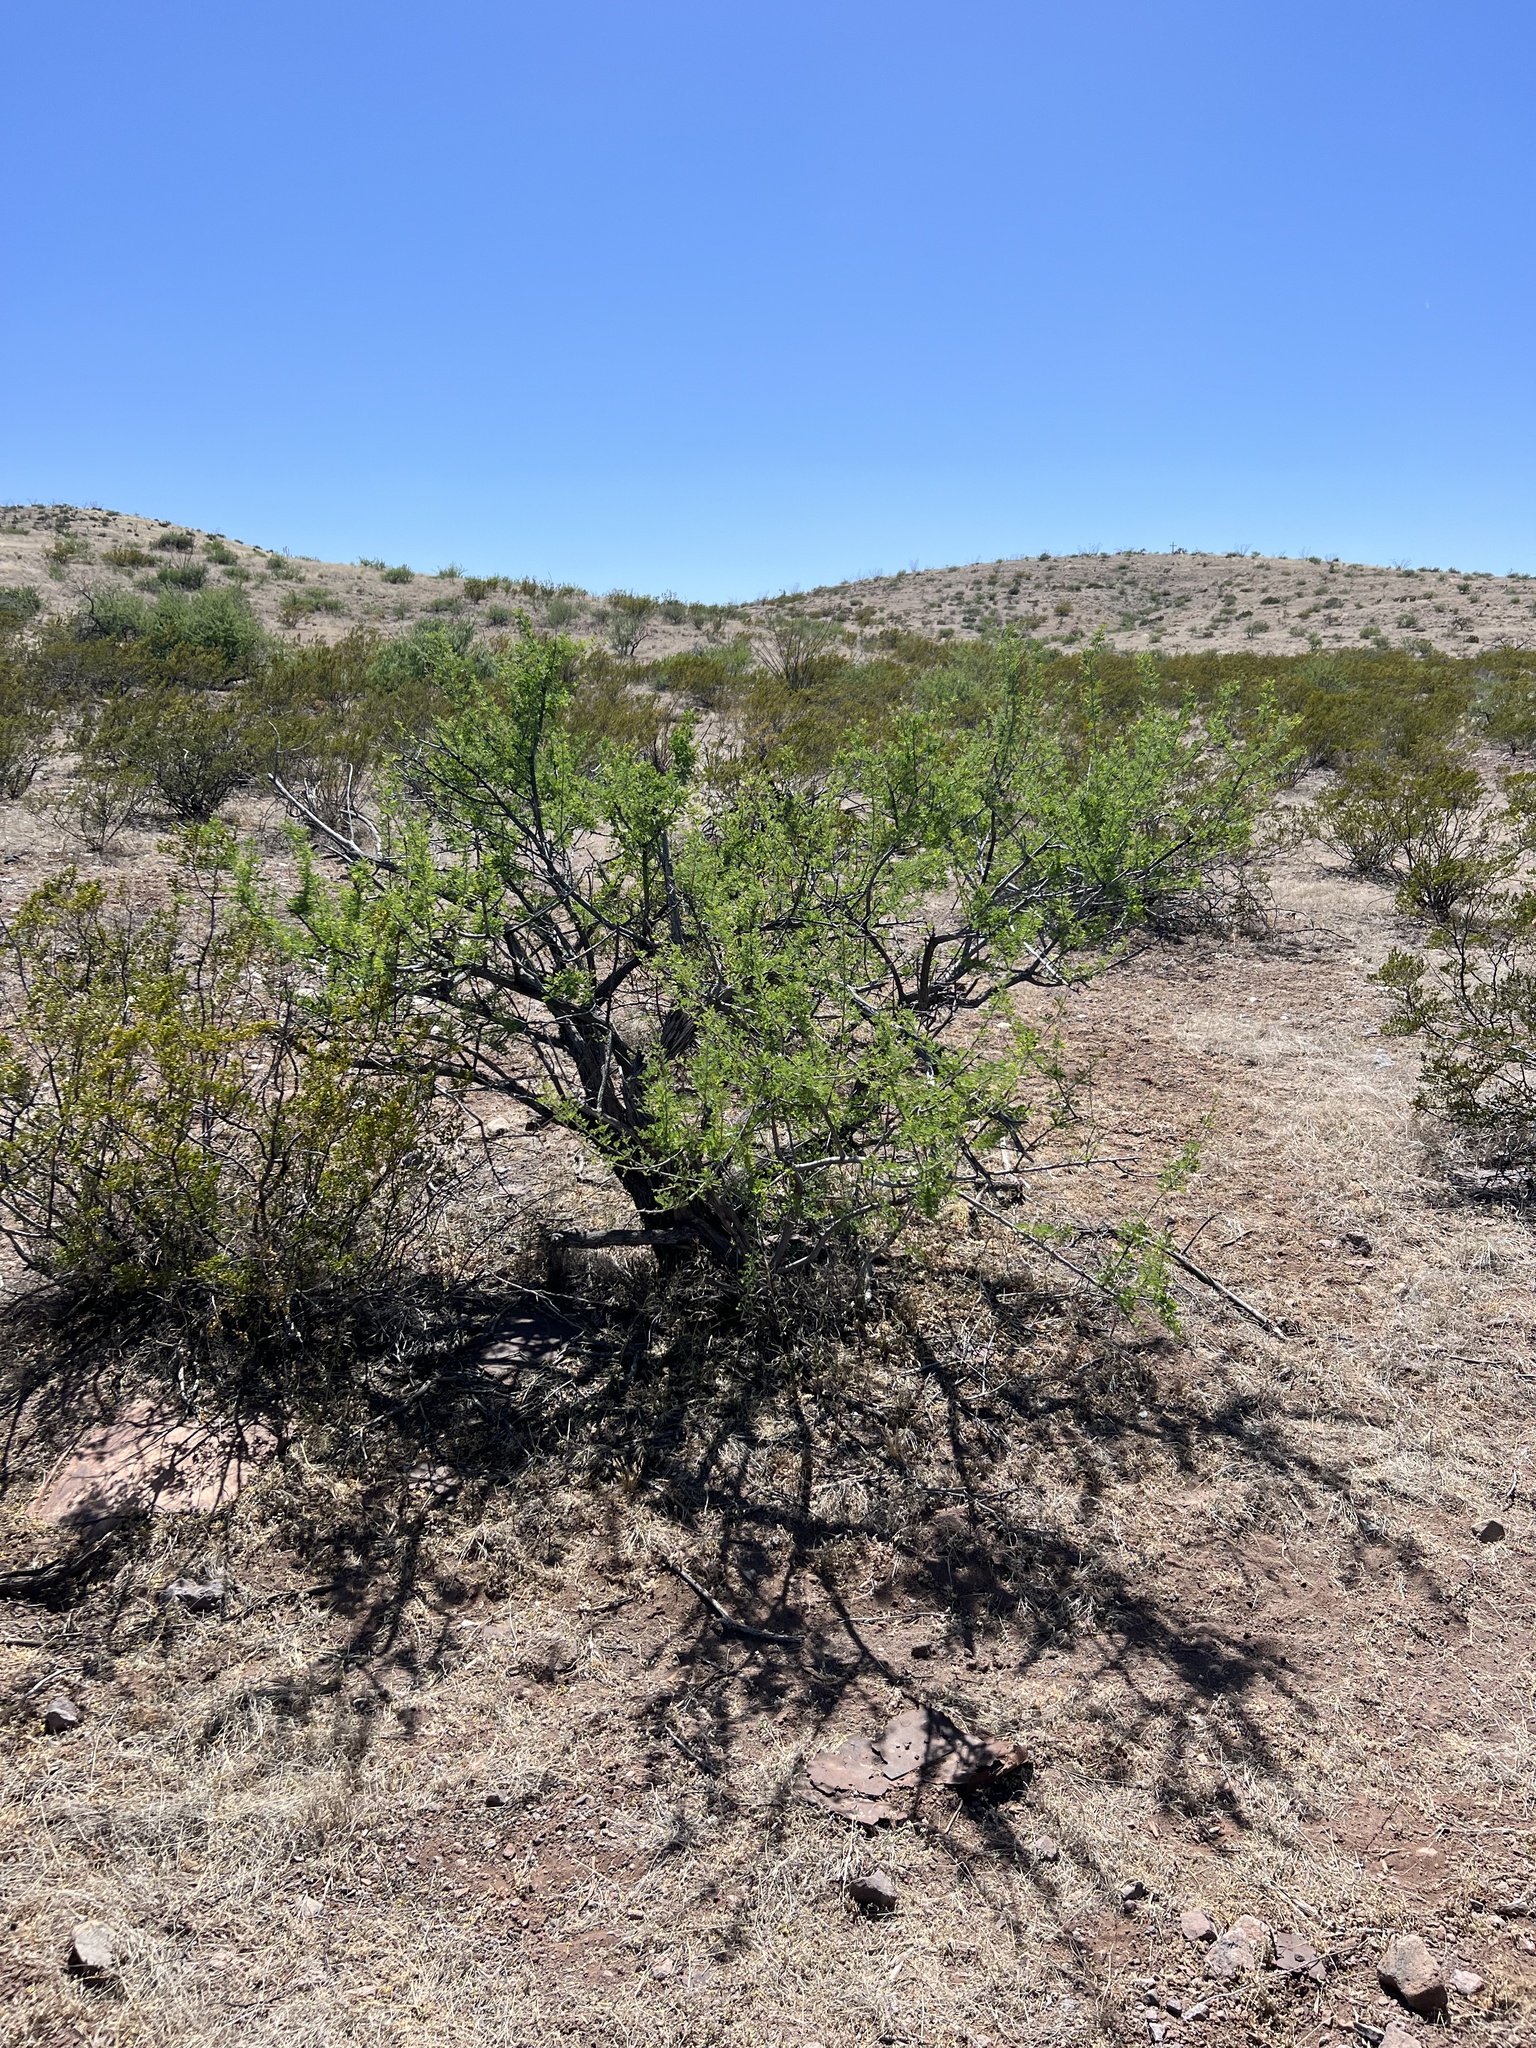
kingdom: Plantae
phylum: Tracheophyta
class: Magnoliopsida
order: Fabales
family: Fabaceae
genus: Senegalia
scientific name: Senegalia greggii
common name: Texas-mimosa
